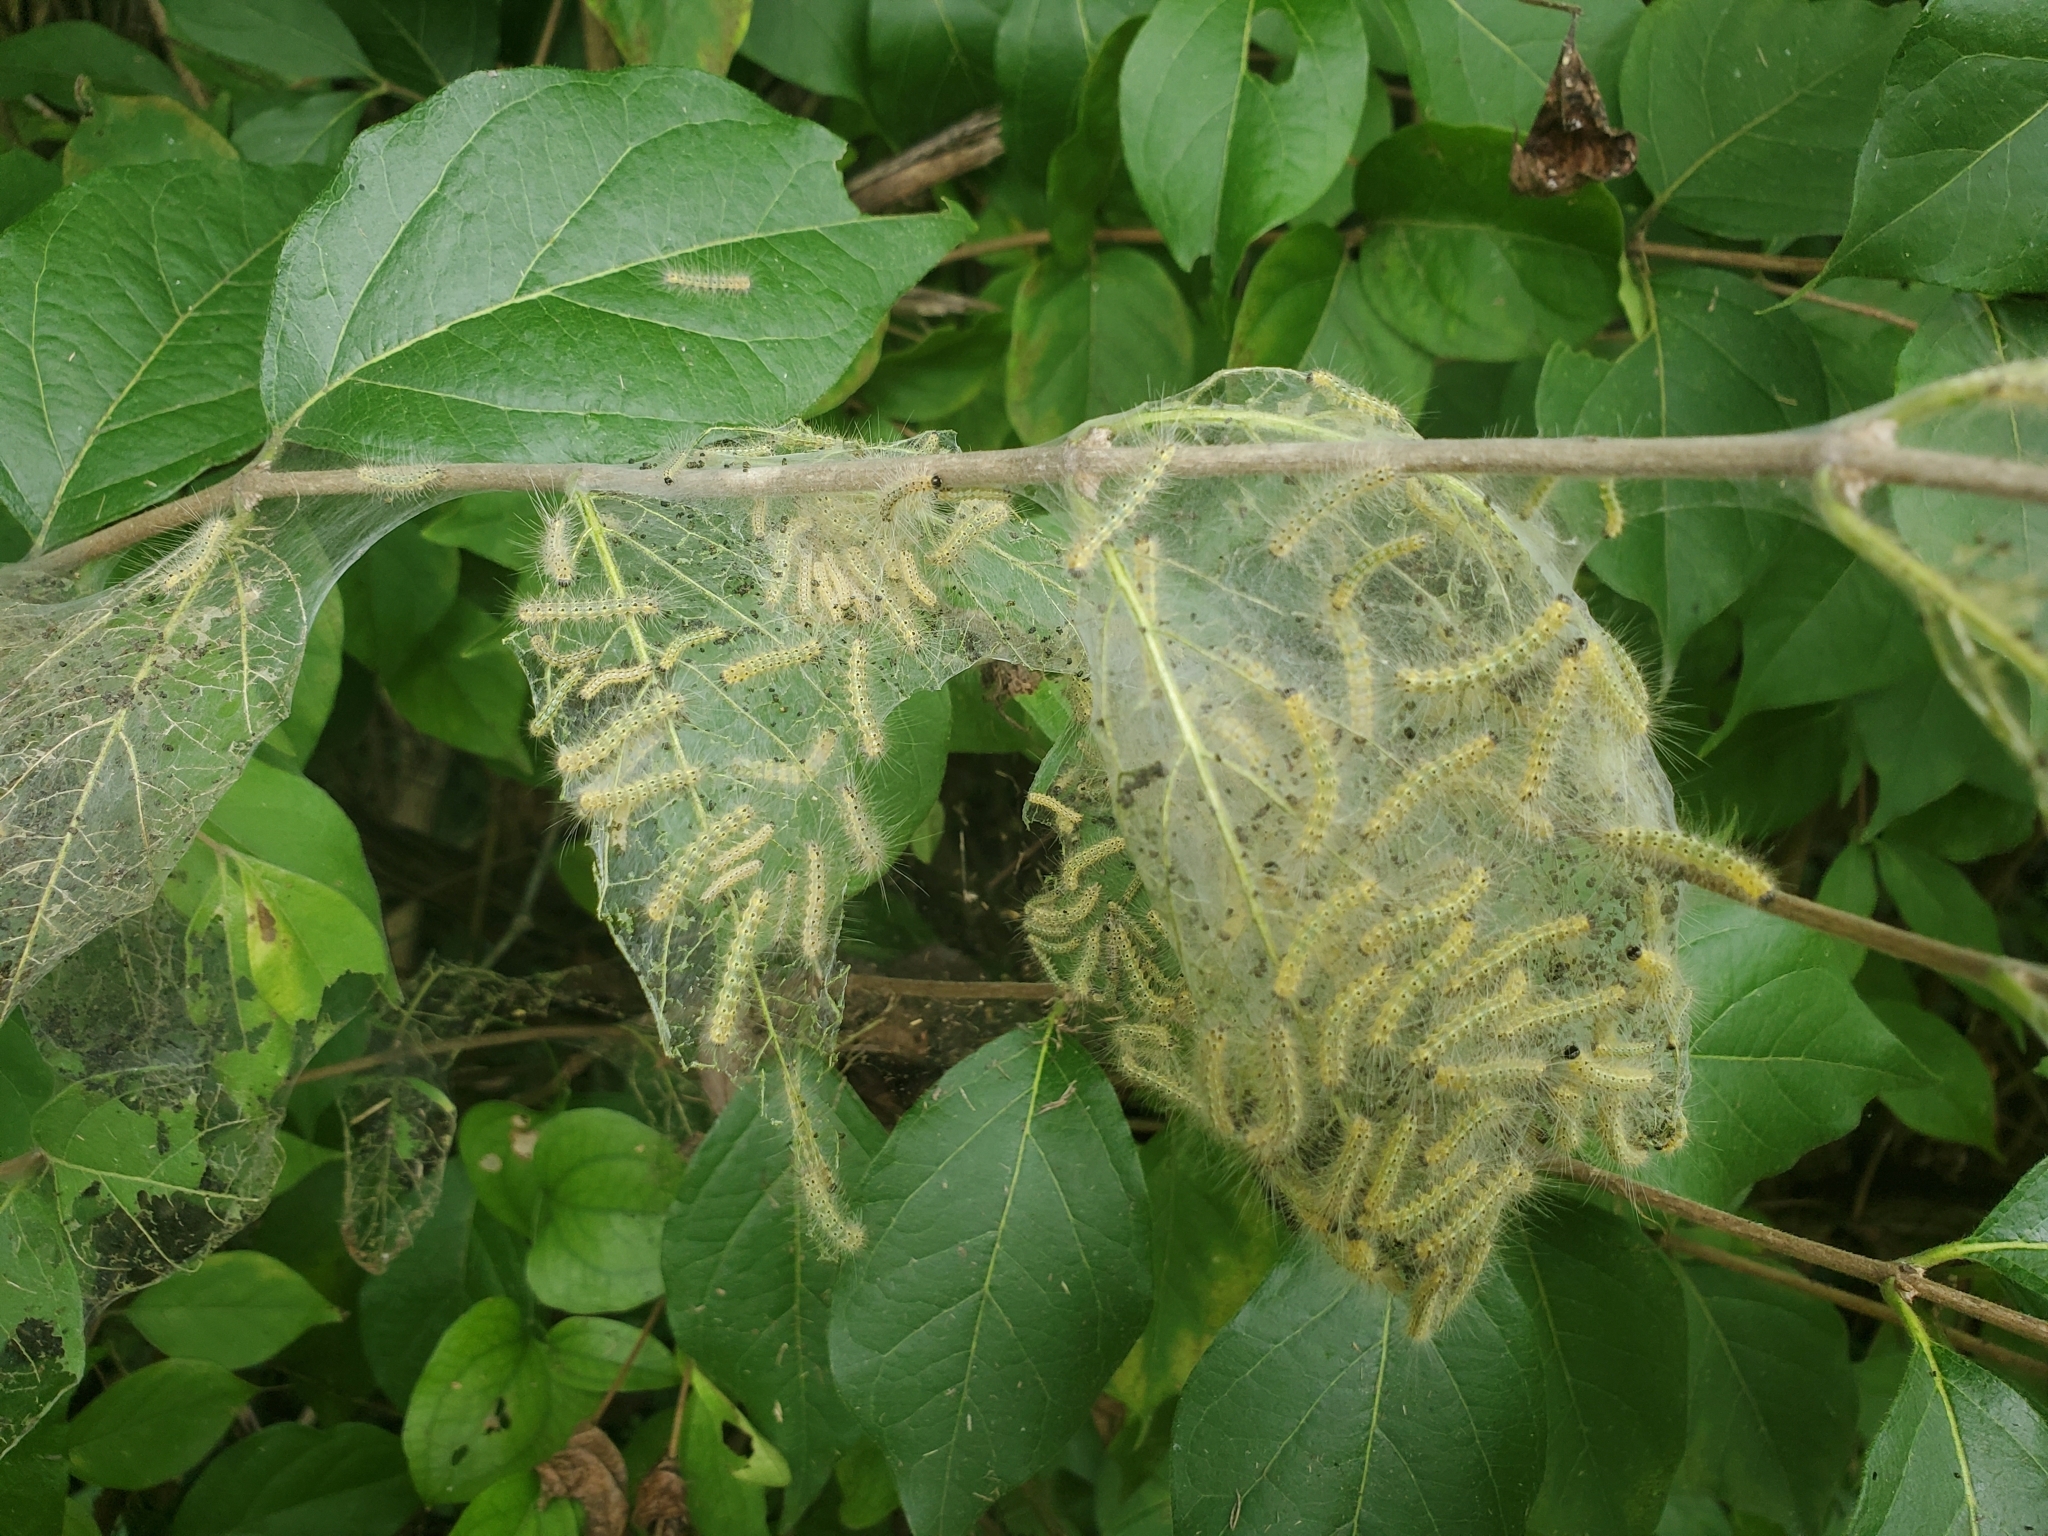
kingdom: Animalia
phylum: Arthropoda
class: Insecta
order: Lepidoptera
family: Erebidae
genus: Hyphantria
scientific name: Hyphantria cunea
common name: American white moth
